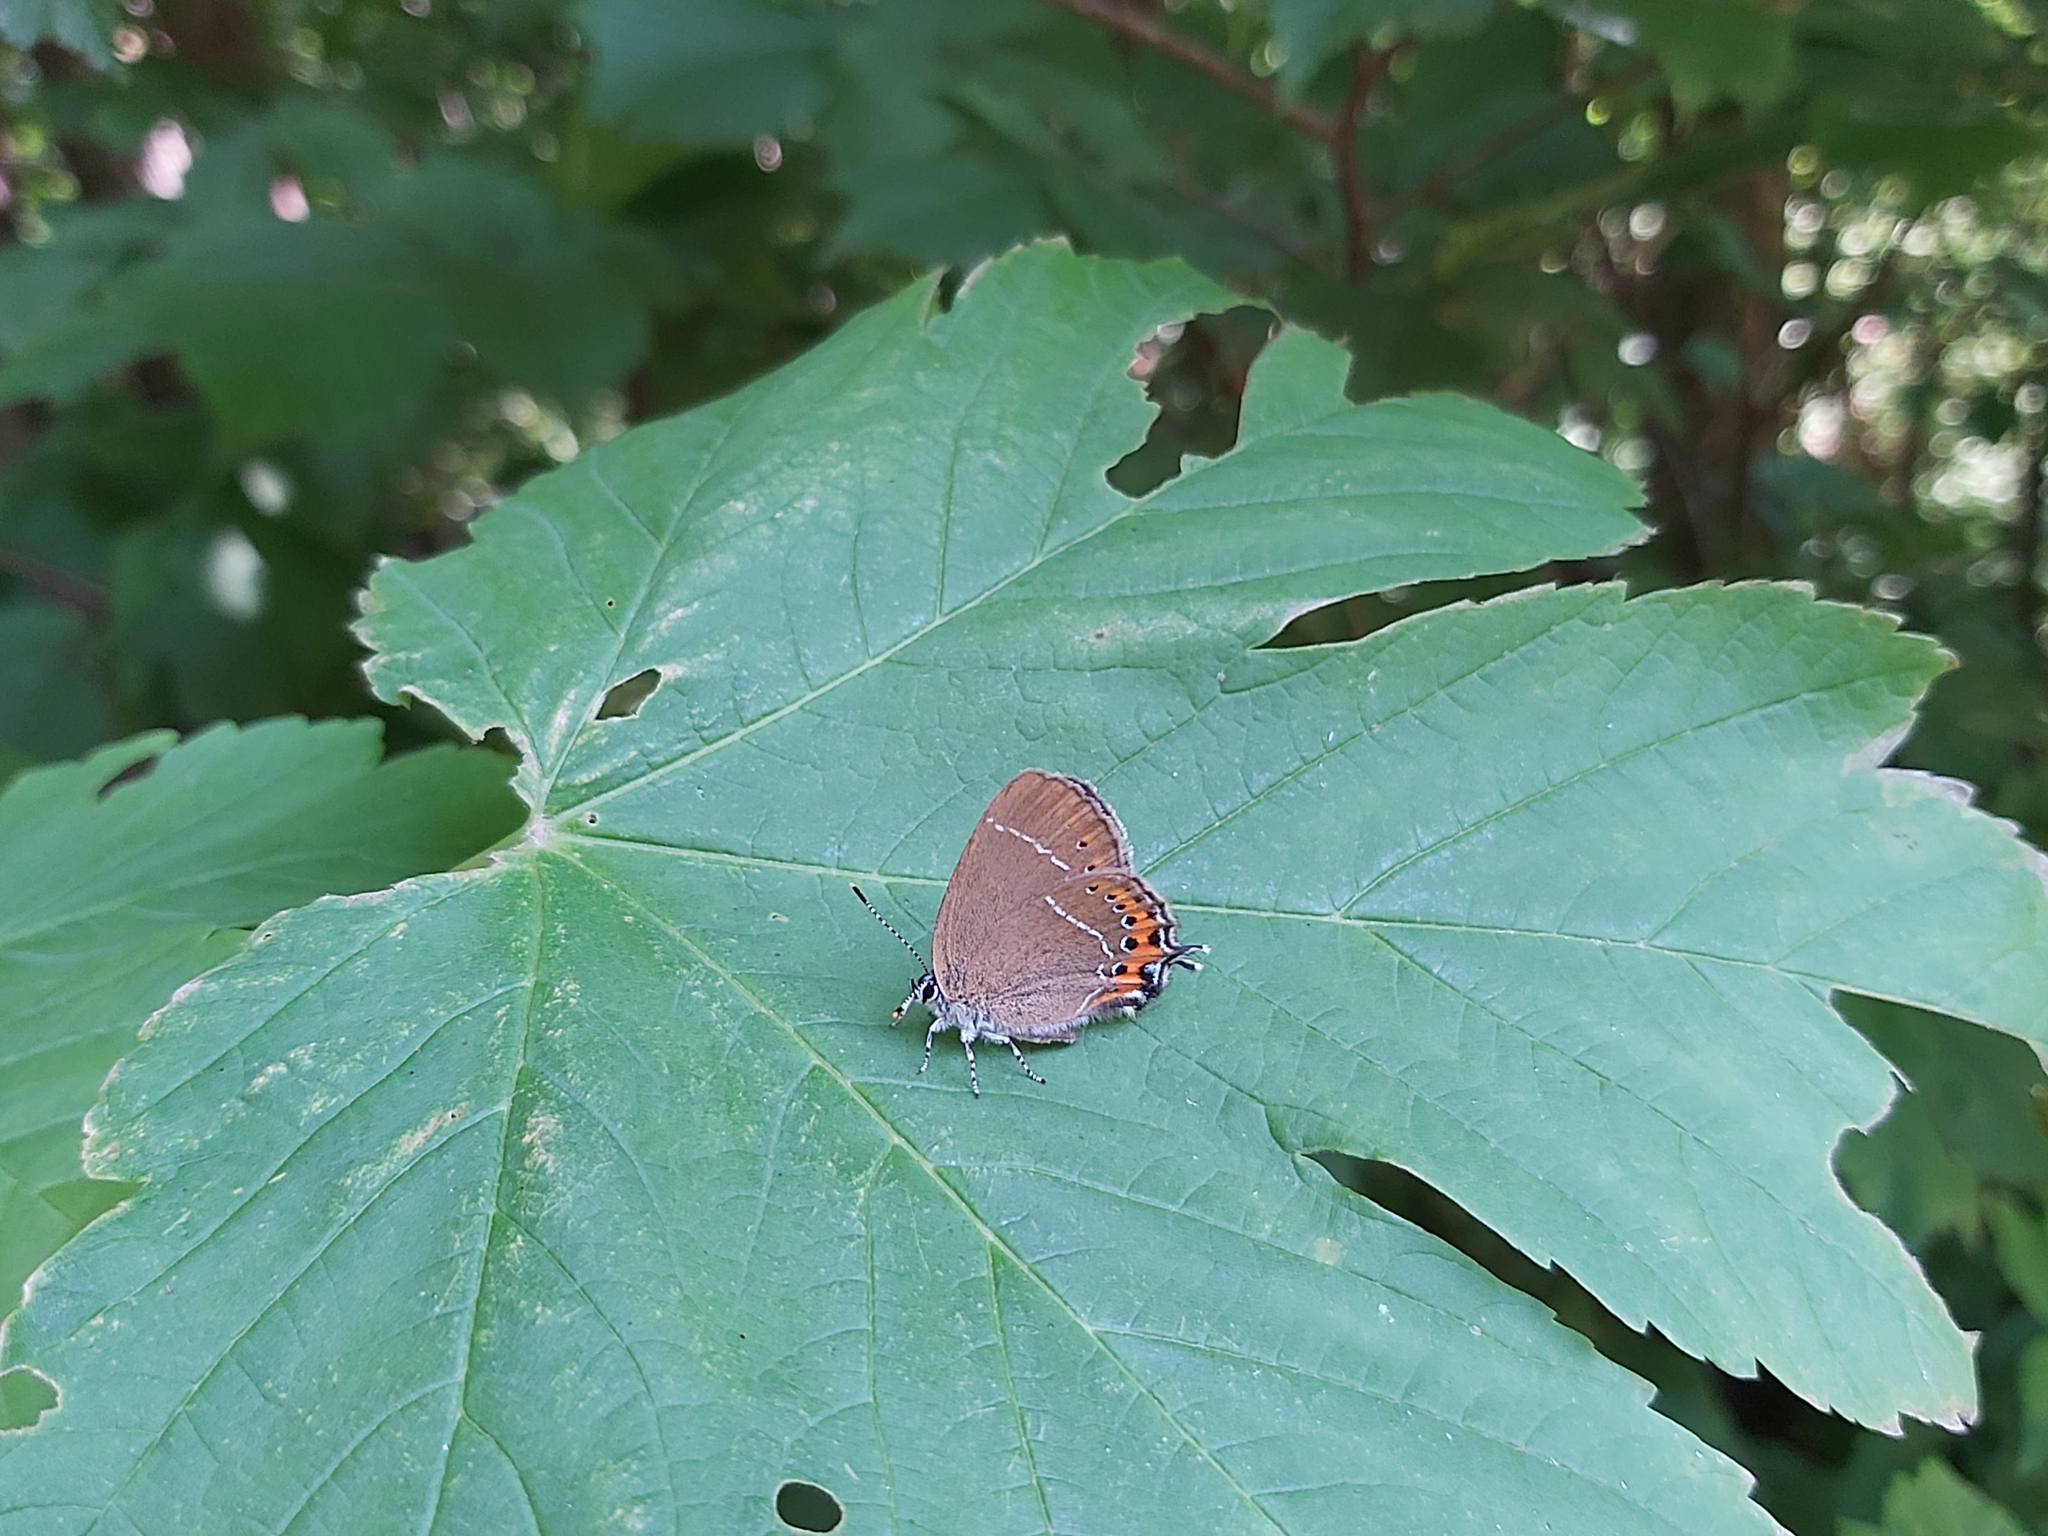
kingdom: Animalia
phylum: Arthropoda
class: Insecta
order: Lepidoptera
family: Lycaenidae
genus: Fixsenia
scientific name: Fixsenia pruni
